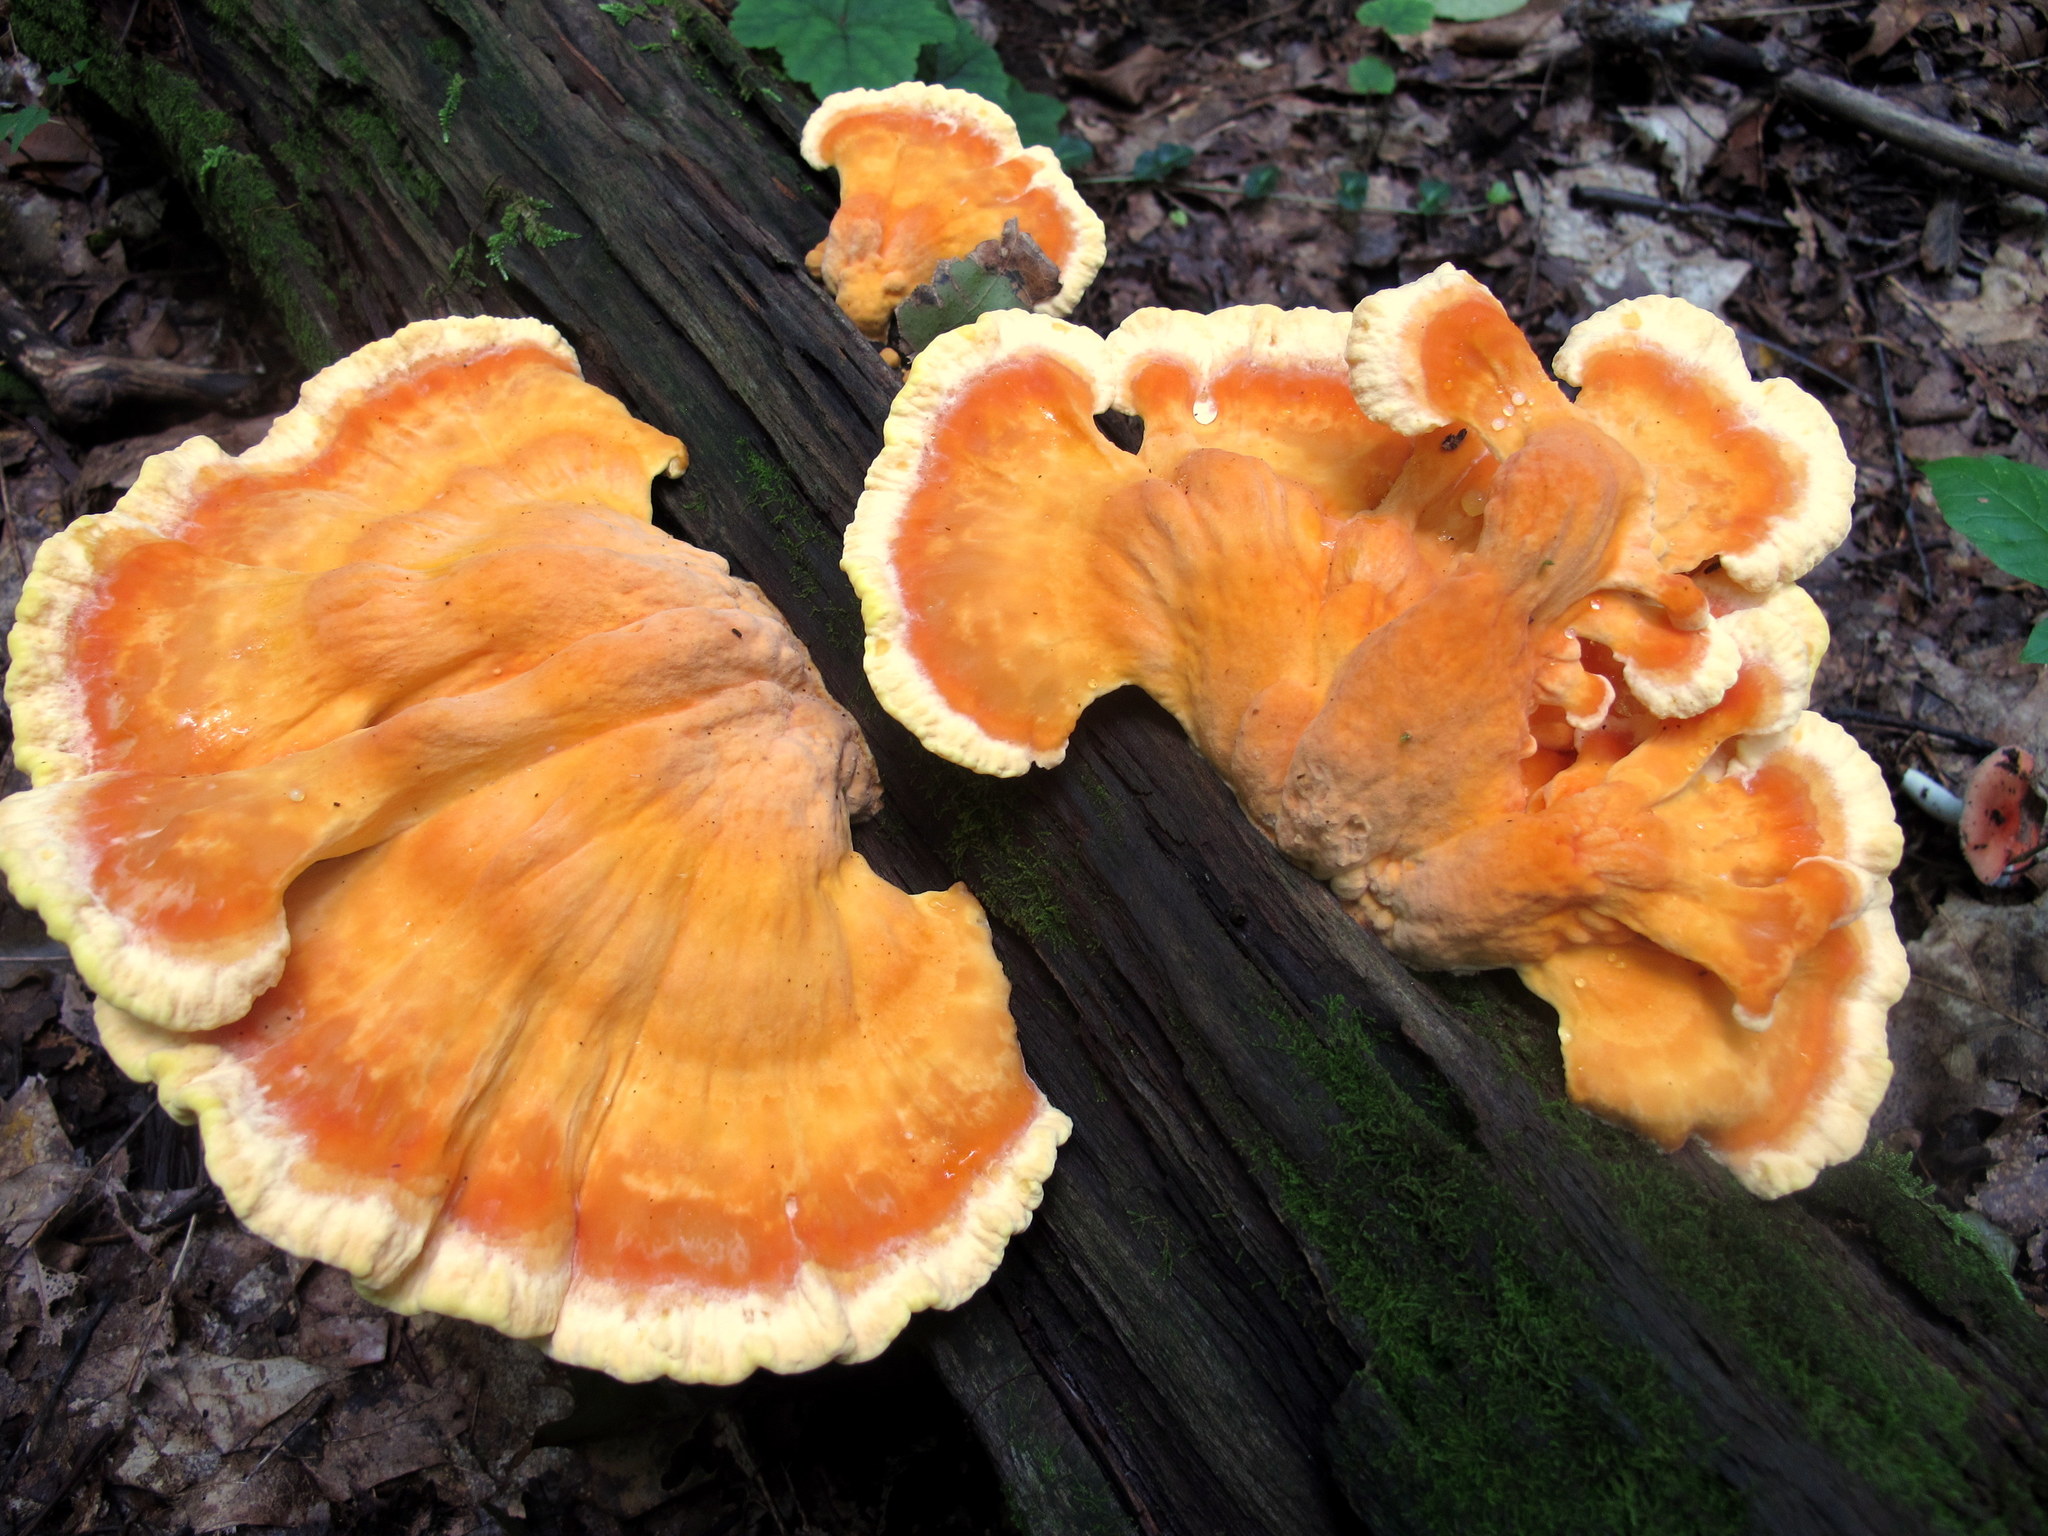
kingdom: Fungi
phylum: Basidiomycota
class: Agaricomycetes
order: Polyporales
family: Laetiporaceae
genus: Laetiporus
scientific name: Laetiporus sulphureus
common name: Chicken of the woods
